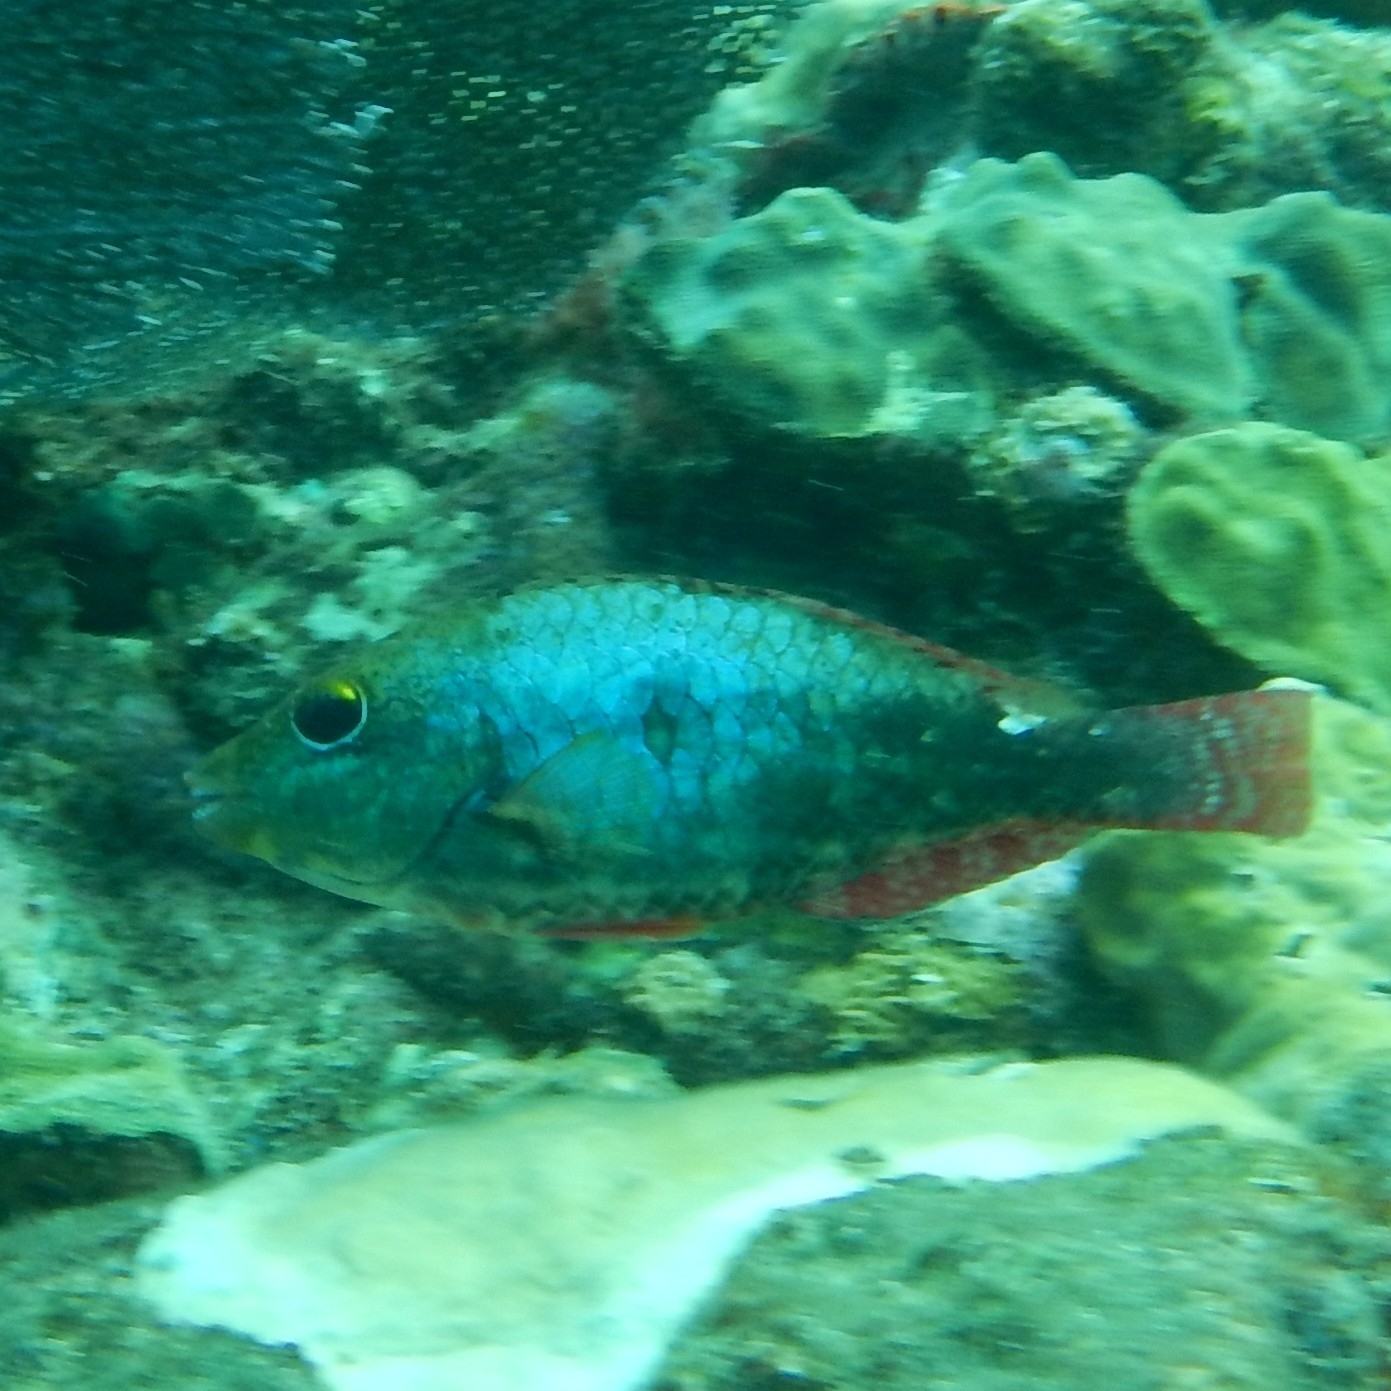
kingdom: Animalia
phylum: Chordata
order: Perciformes
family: Scaridae
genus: Sparisoma
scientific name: Sparisoma aurofrenatum
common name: Redband parrotfish
